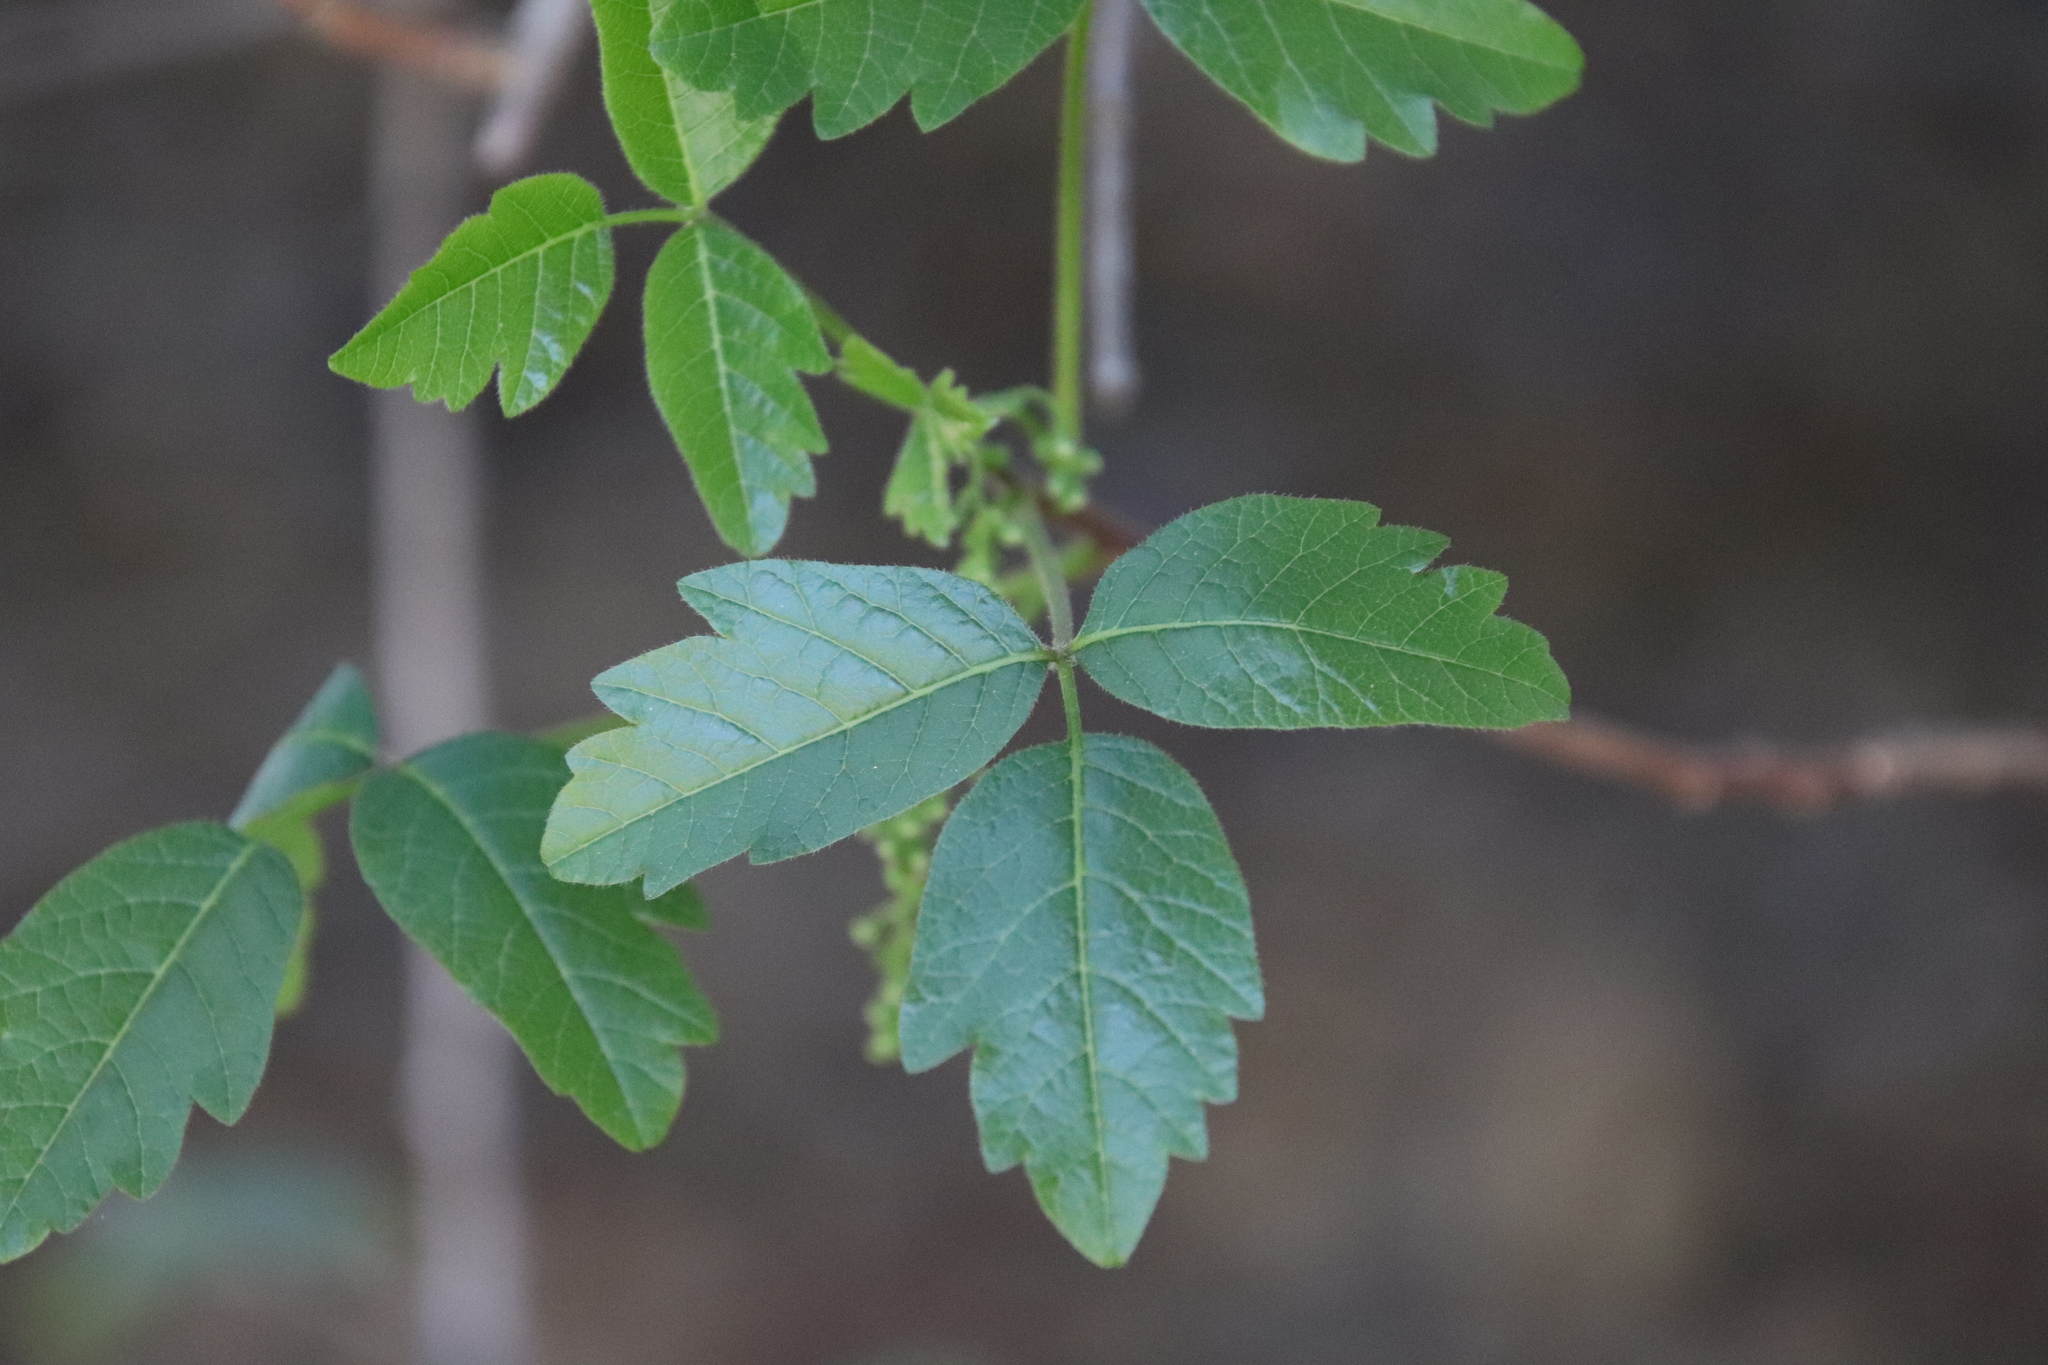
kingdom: Plantae
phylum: Tracheophyta
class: Magnoliopsida
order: Sapindales
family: Anacardiaceae
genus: Toxicodendron
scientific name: Toxicodendron diversilobum
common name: Pacific poison-oak
